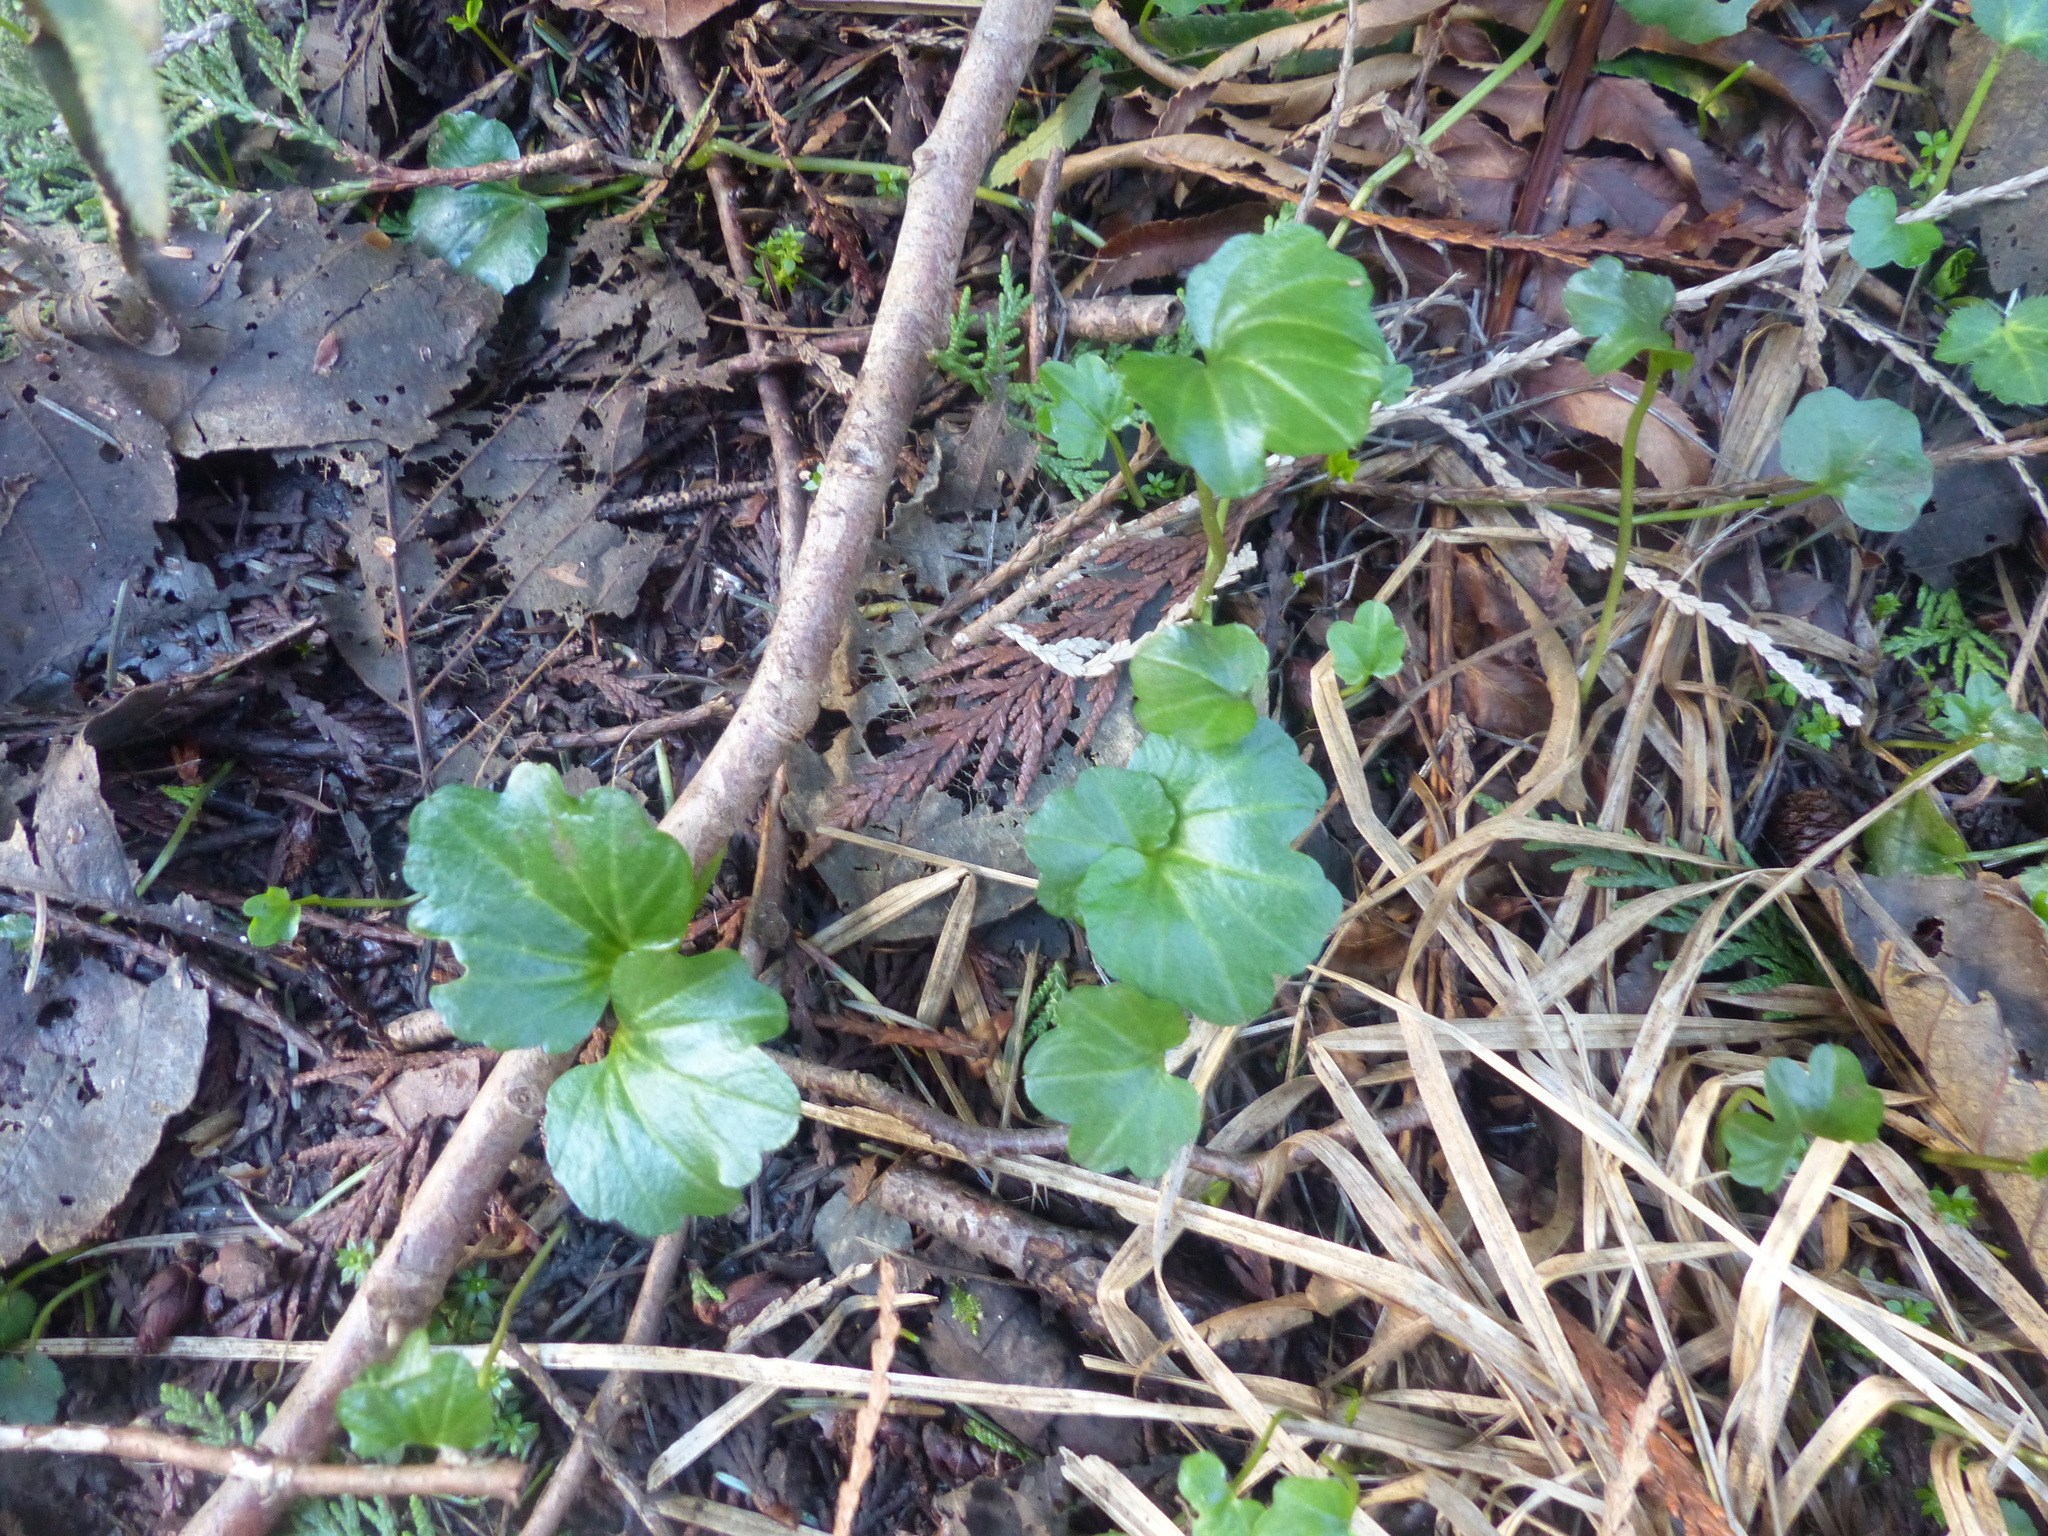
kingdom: Plantae
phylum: Tracheophyta
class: Magnoliopsida
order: Brassicales
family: Brassicaceae
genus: Cardamine
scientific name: Cardamine nuttallii
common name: Nuttall's toothwort
